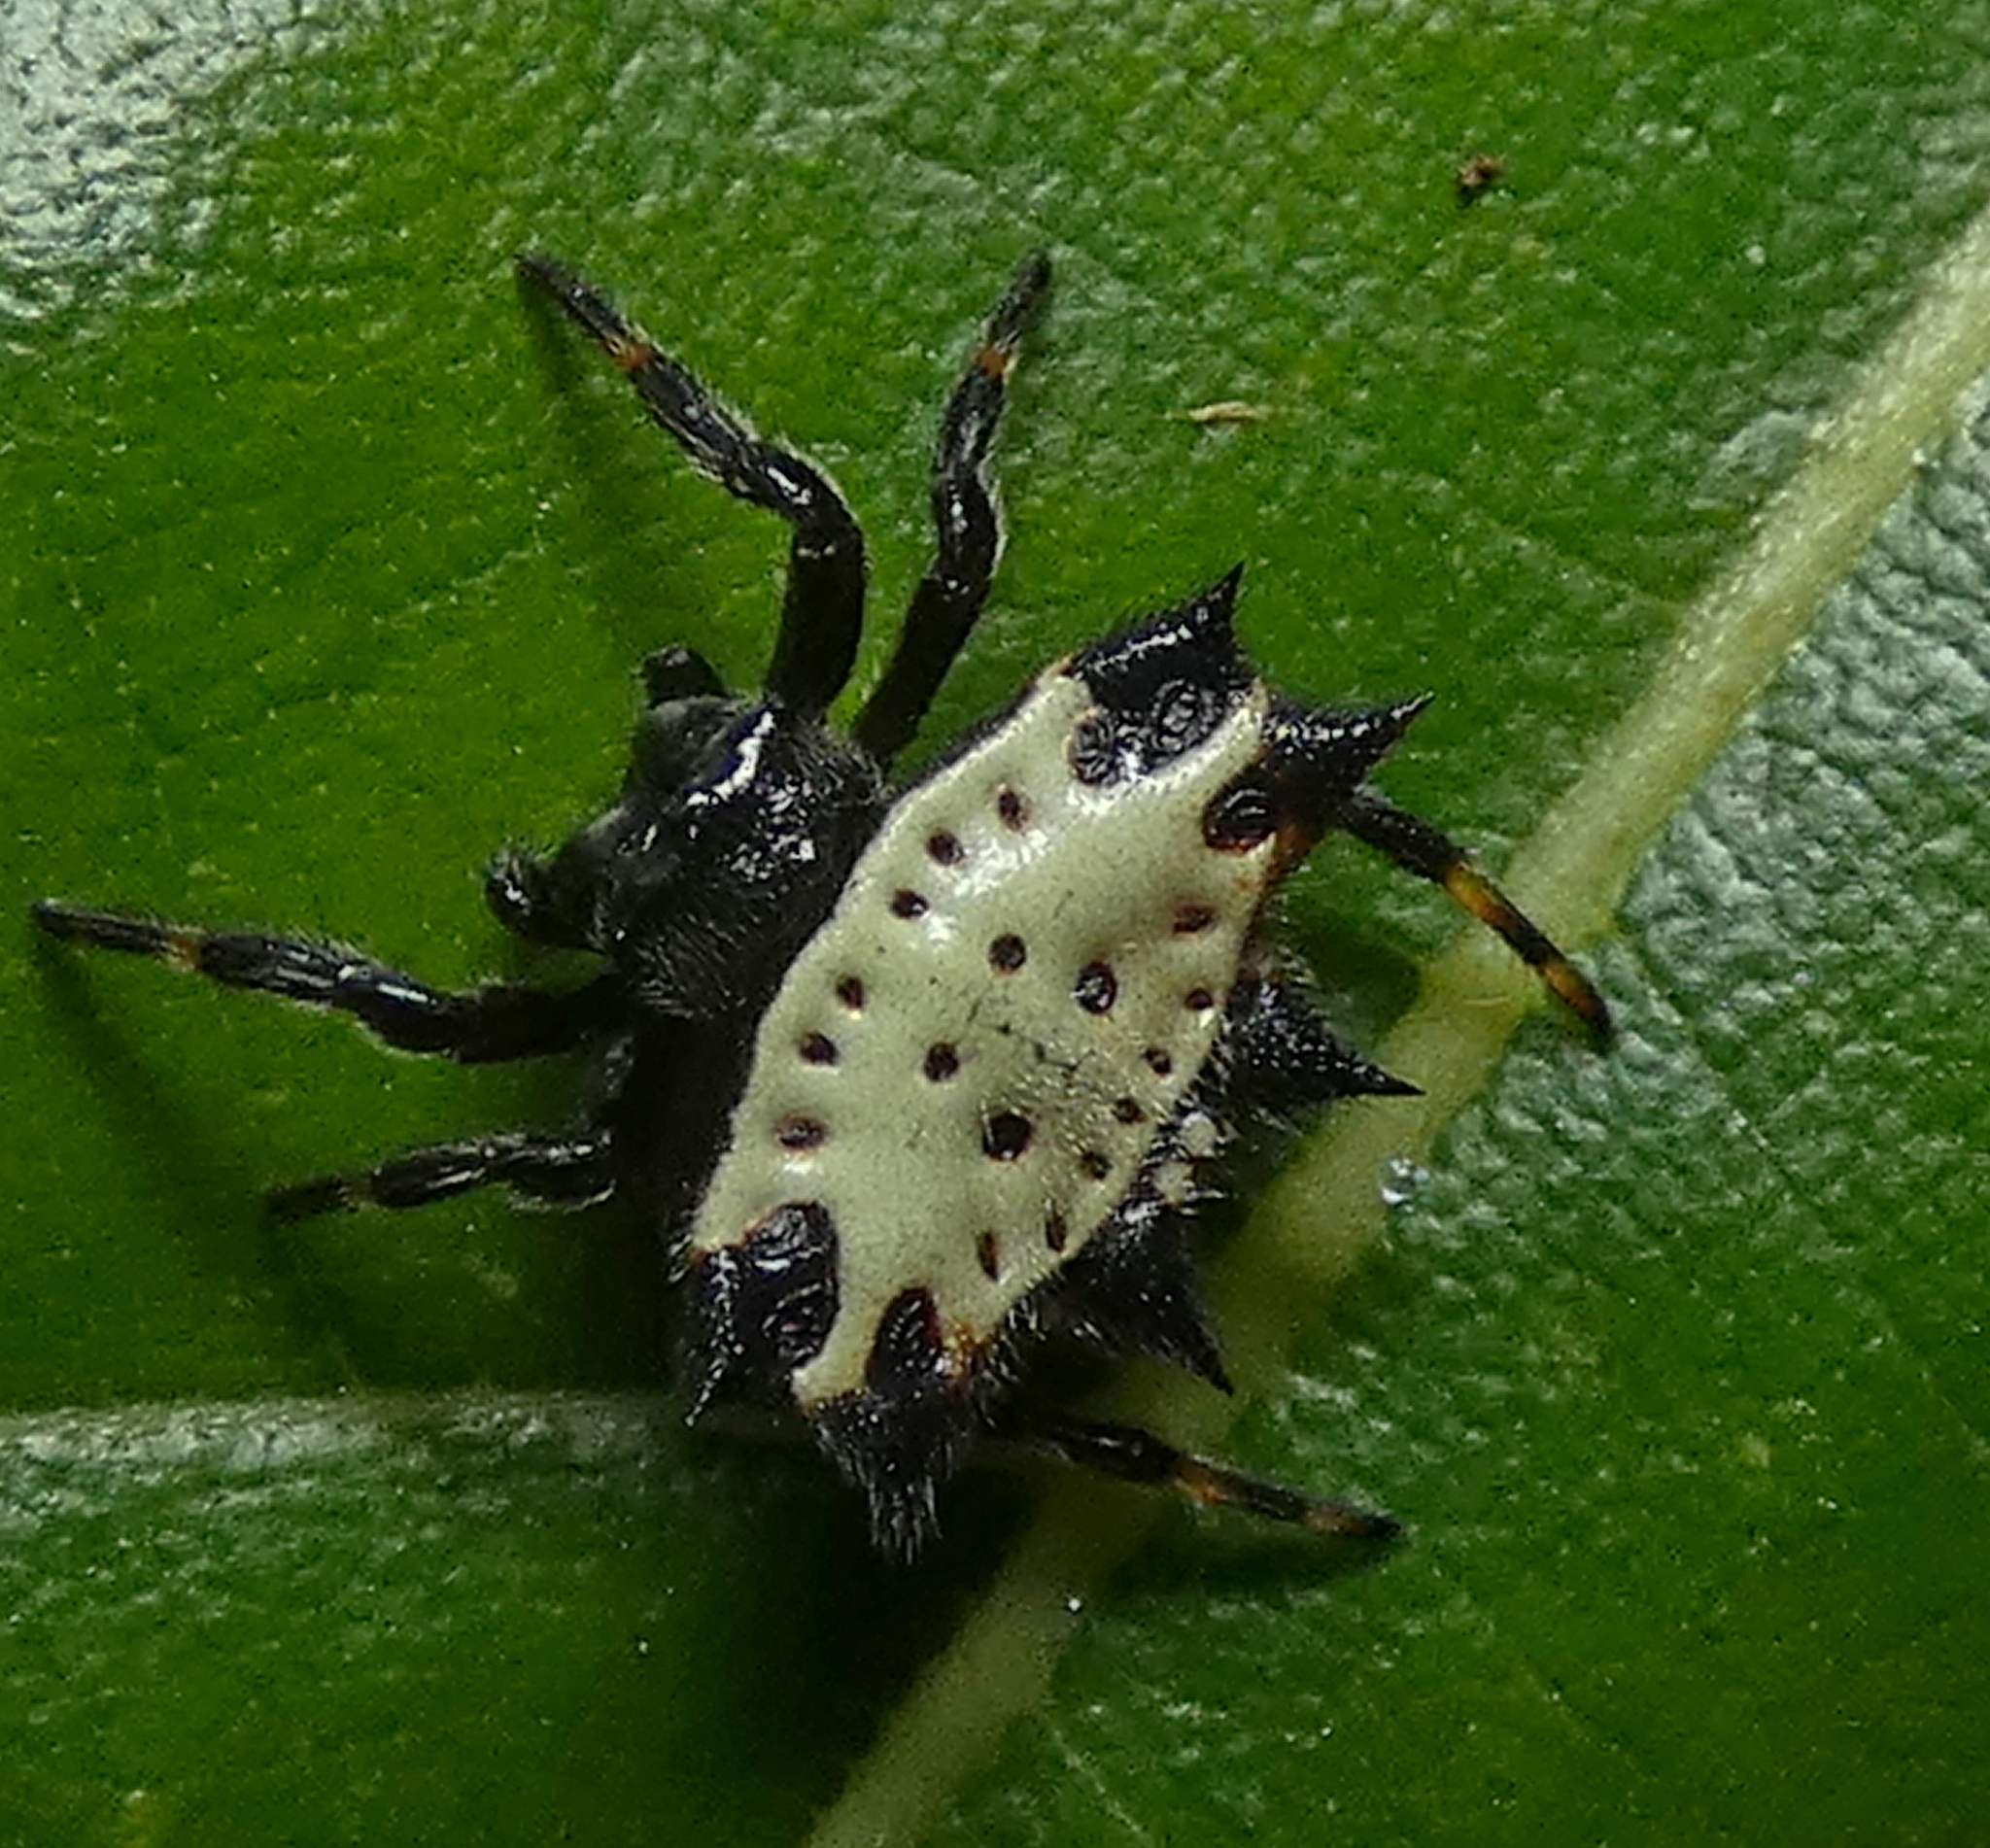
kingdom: Animalia
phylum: Arthropoda
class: Arachnida
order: Araneae
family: Araneidae
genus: Gasteracantha
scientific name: Gasteracantha cancriformis
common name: Orb weavers
